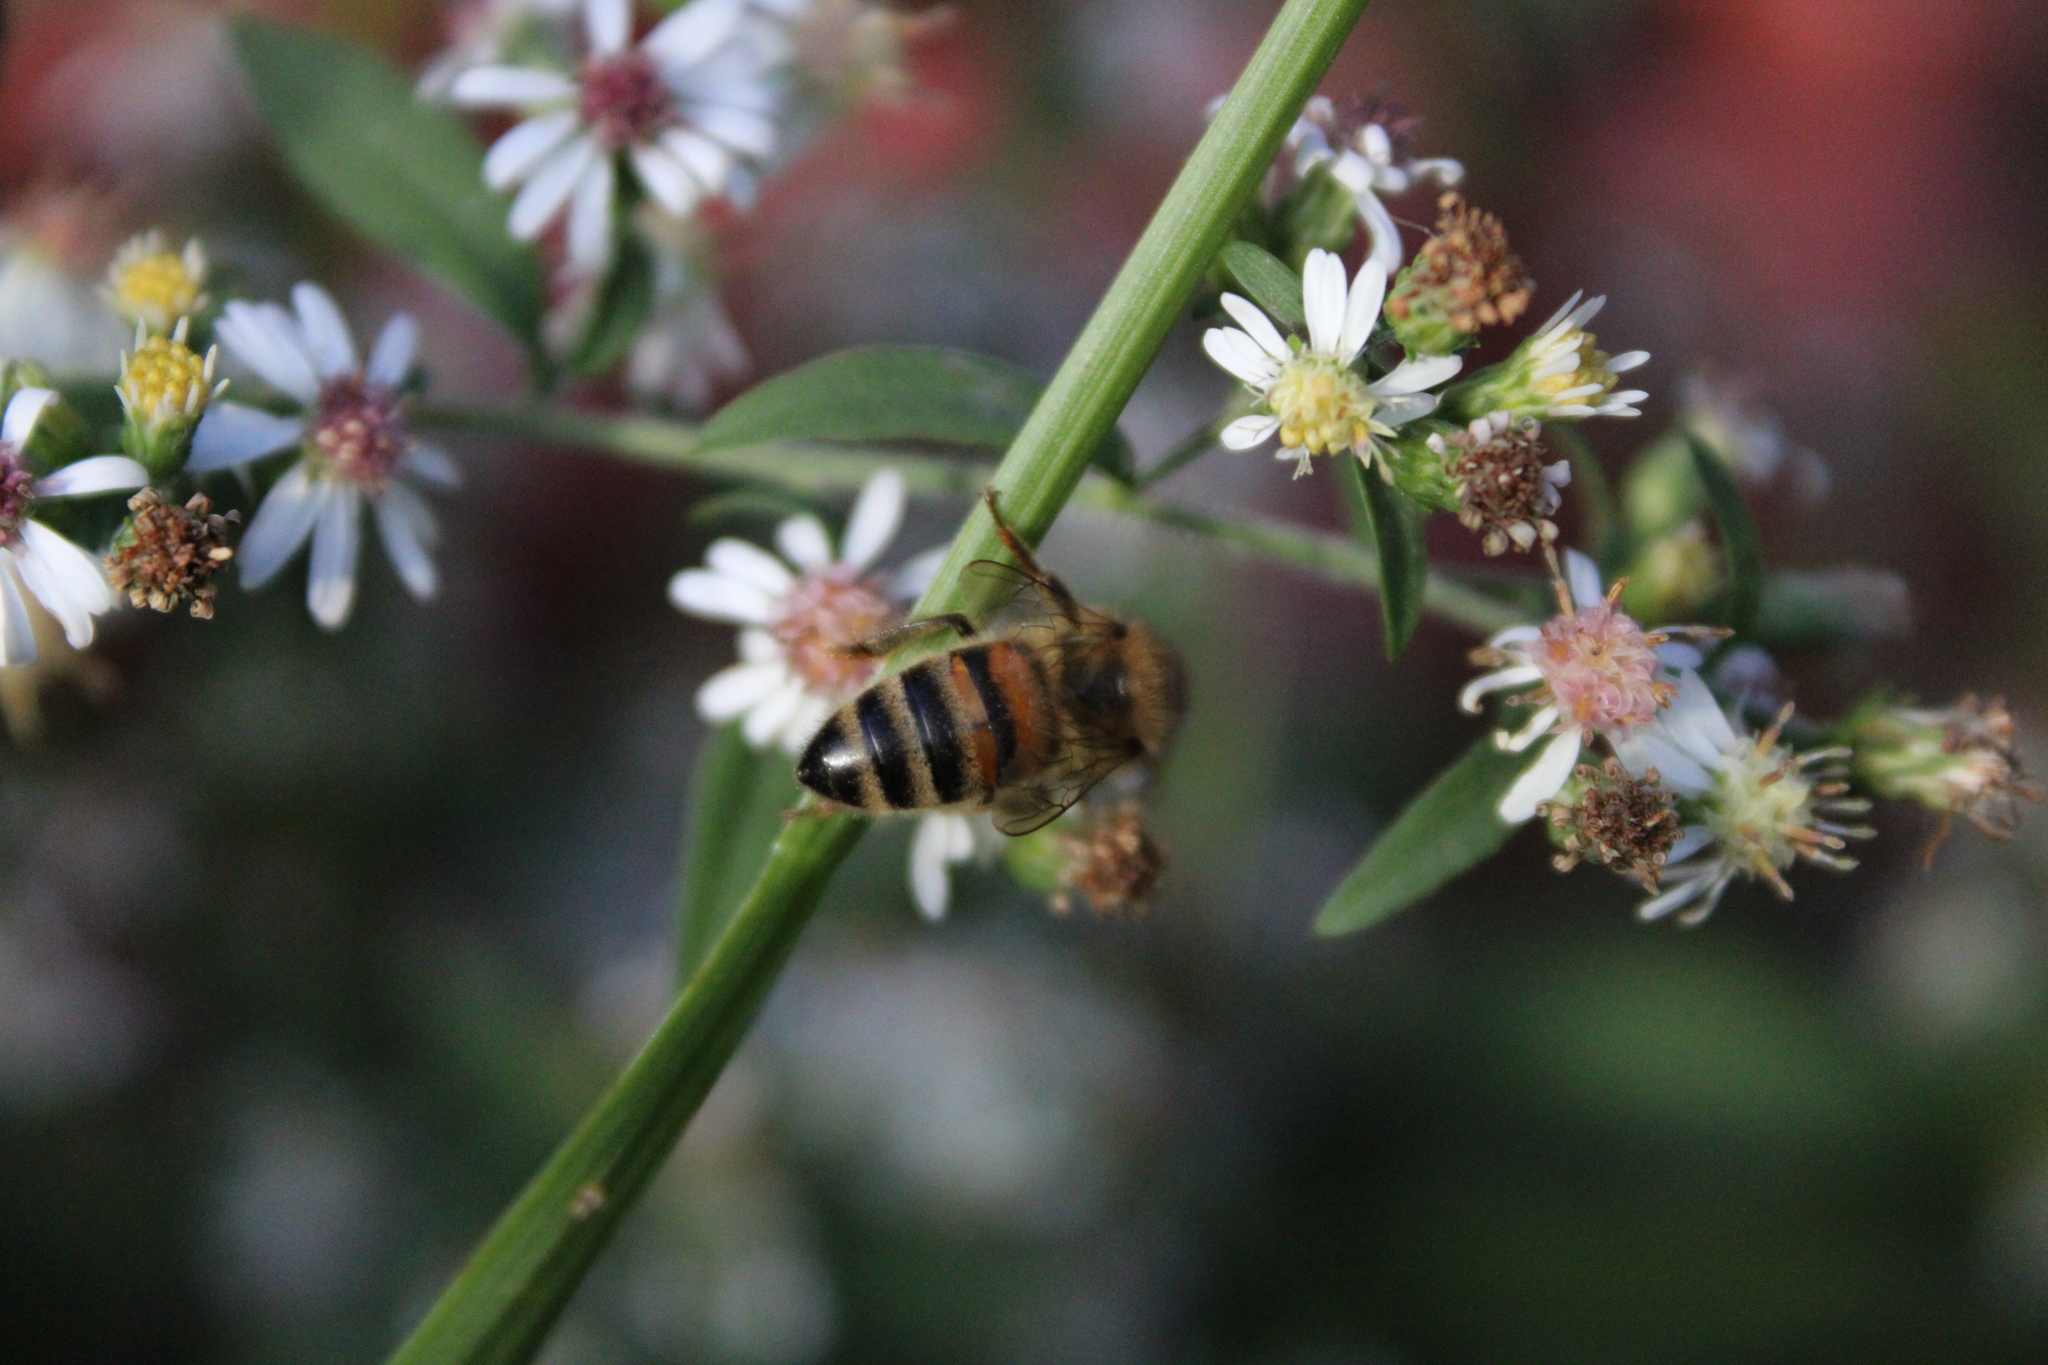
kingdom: Animalia
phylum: Arthropoda
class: Insecta
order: Hymenoptera
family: Apidae
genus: Apis
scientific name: Apis mellifera
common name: Honey bee
